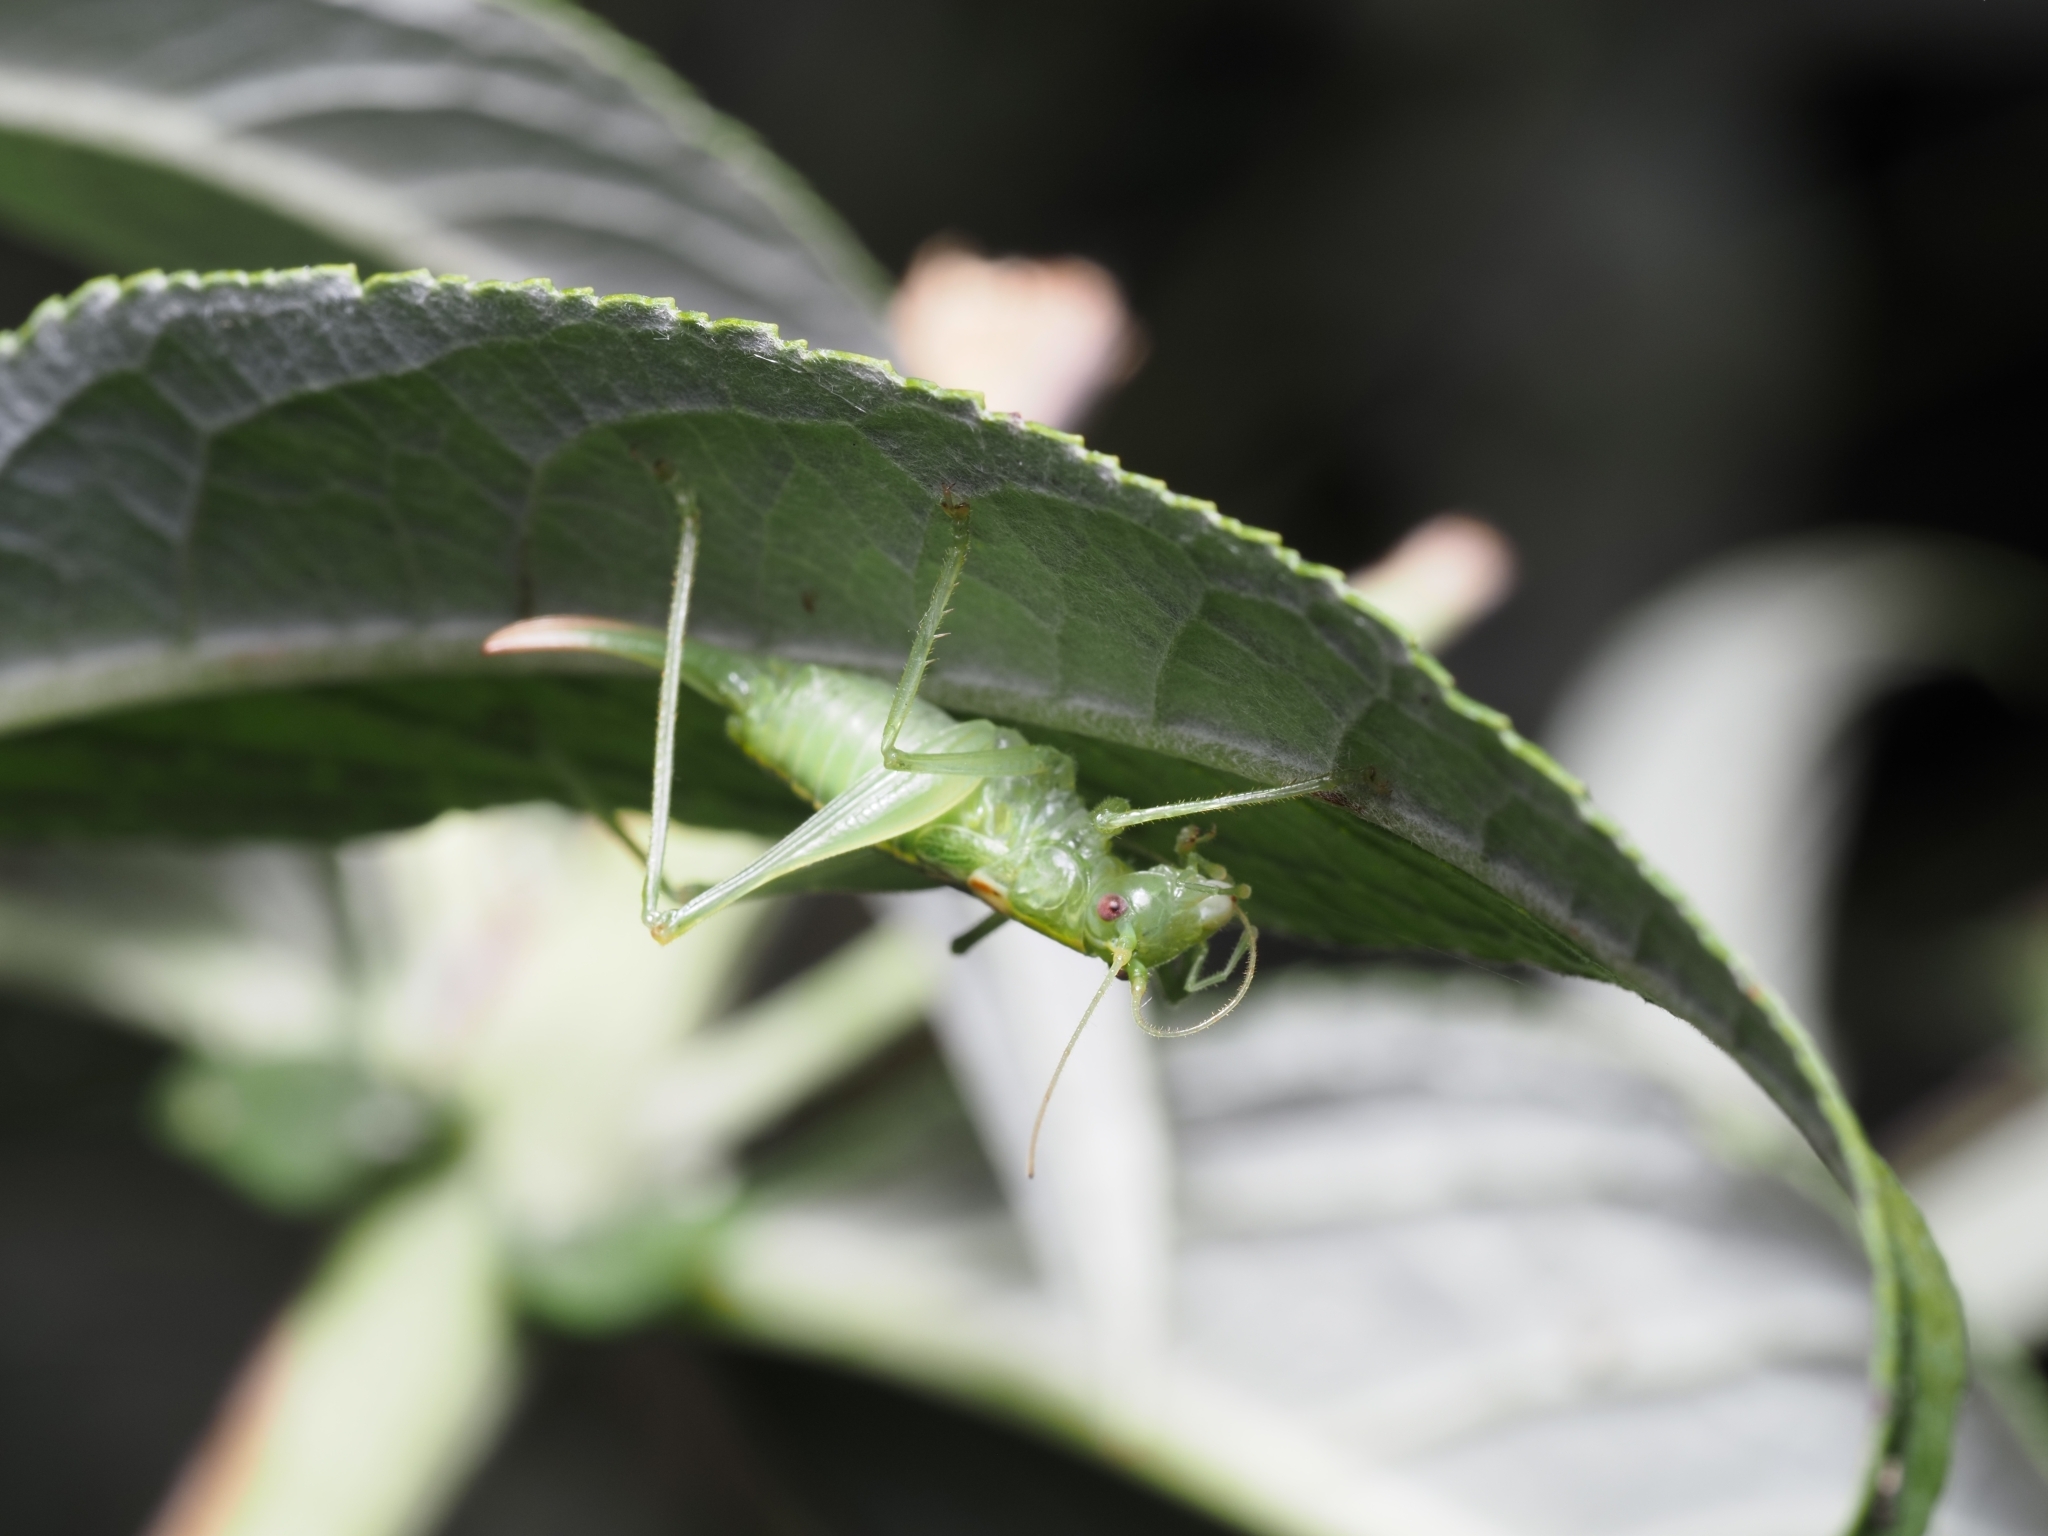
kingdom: Animalia
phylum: Arthropoda
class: Insecta
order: Orthoptera
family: Tettigoniidae
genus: Meconema
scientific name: Meconema meridionale
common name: Southern oak bush-cricket
